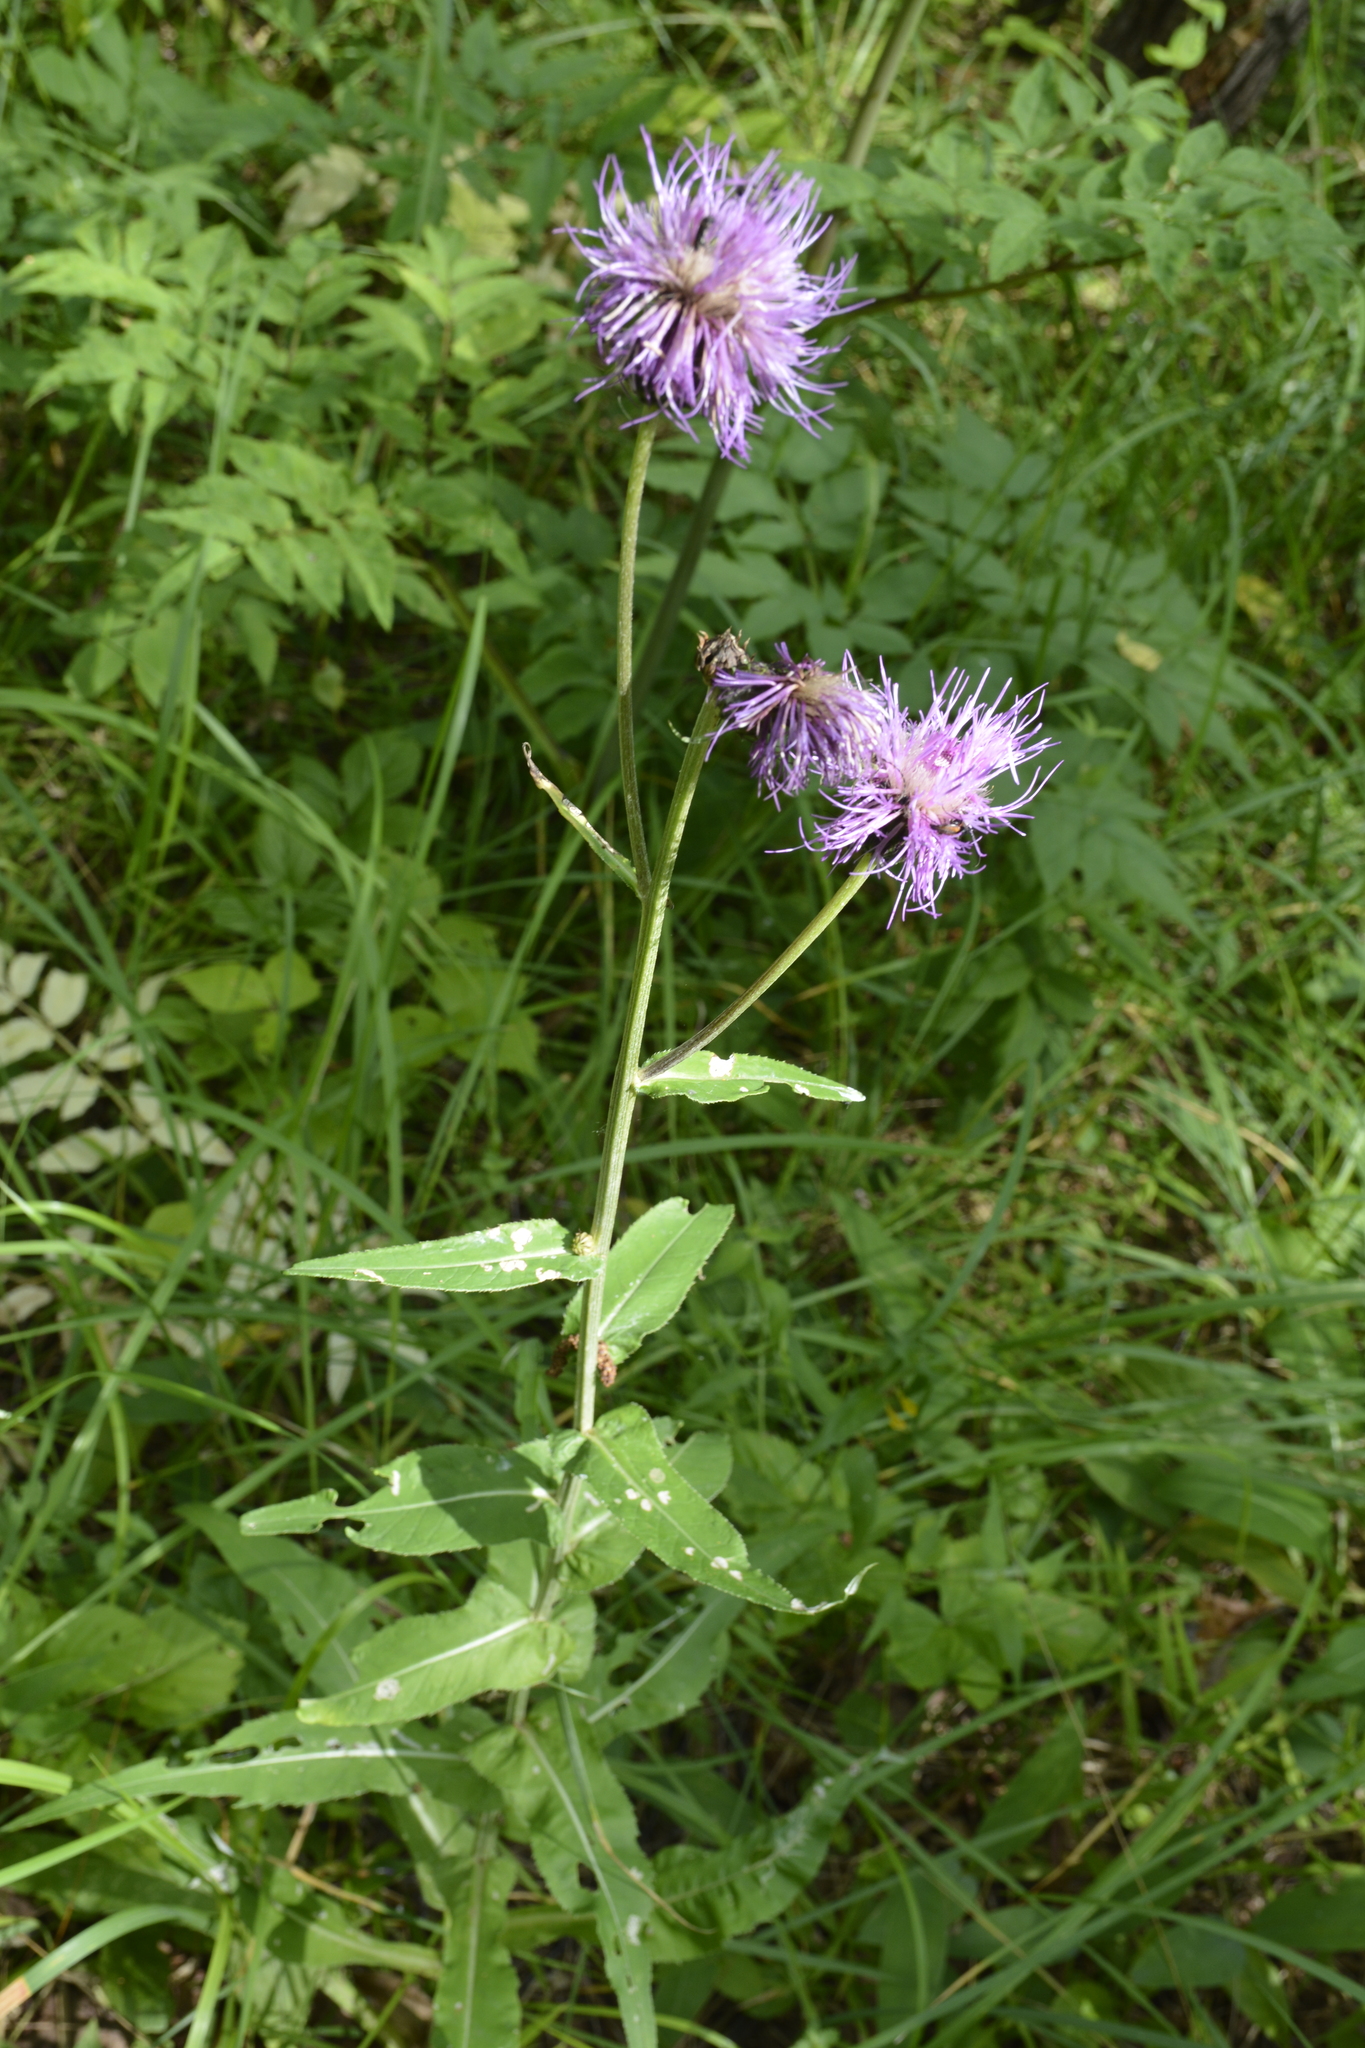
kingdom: Plantae
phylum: Tracheophyta
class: Magnoliopsida
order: Asterales
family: Asteraceae
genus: Cirsium
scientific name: Cirsium heterophyllum
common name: Melancholy thistle
